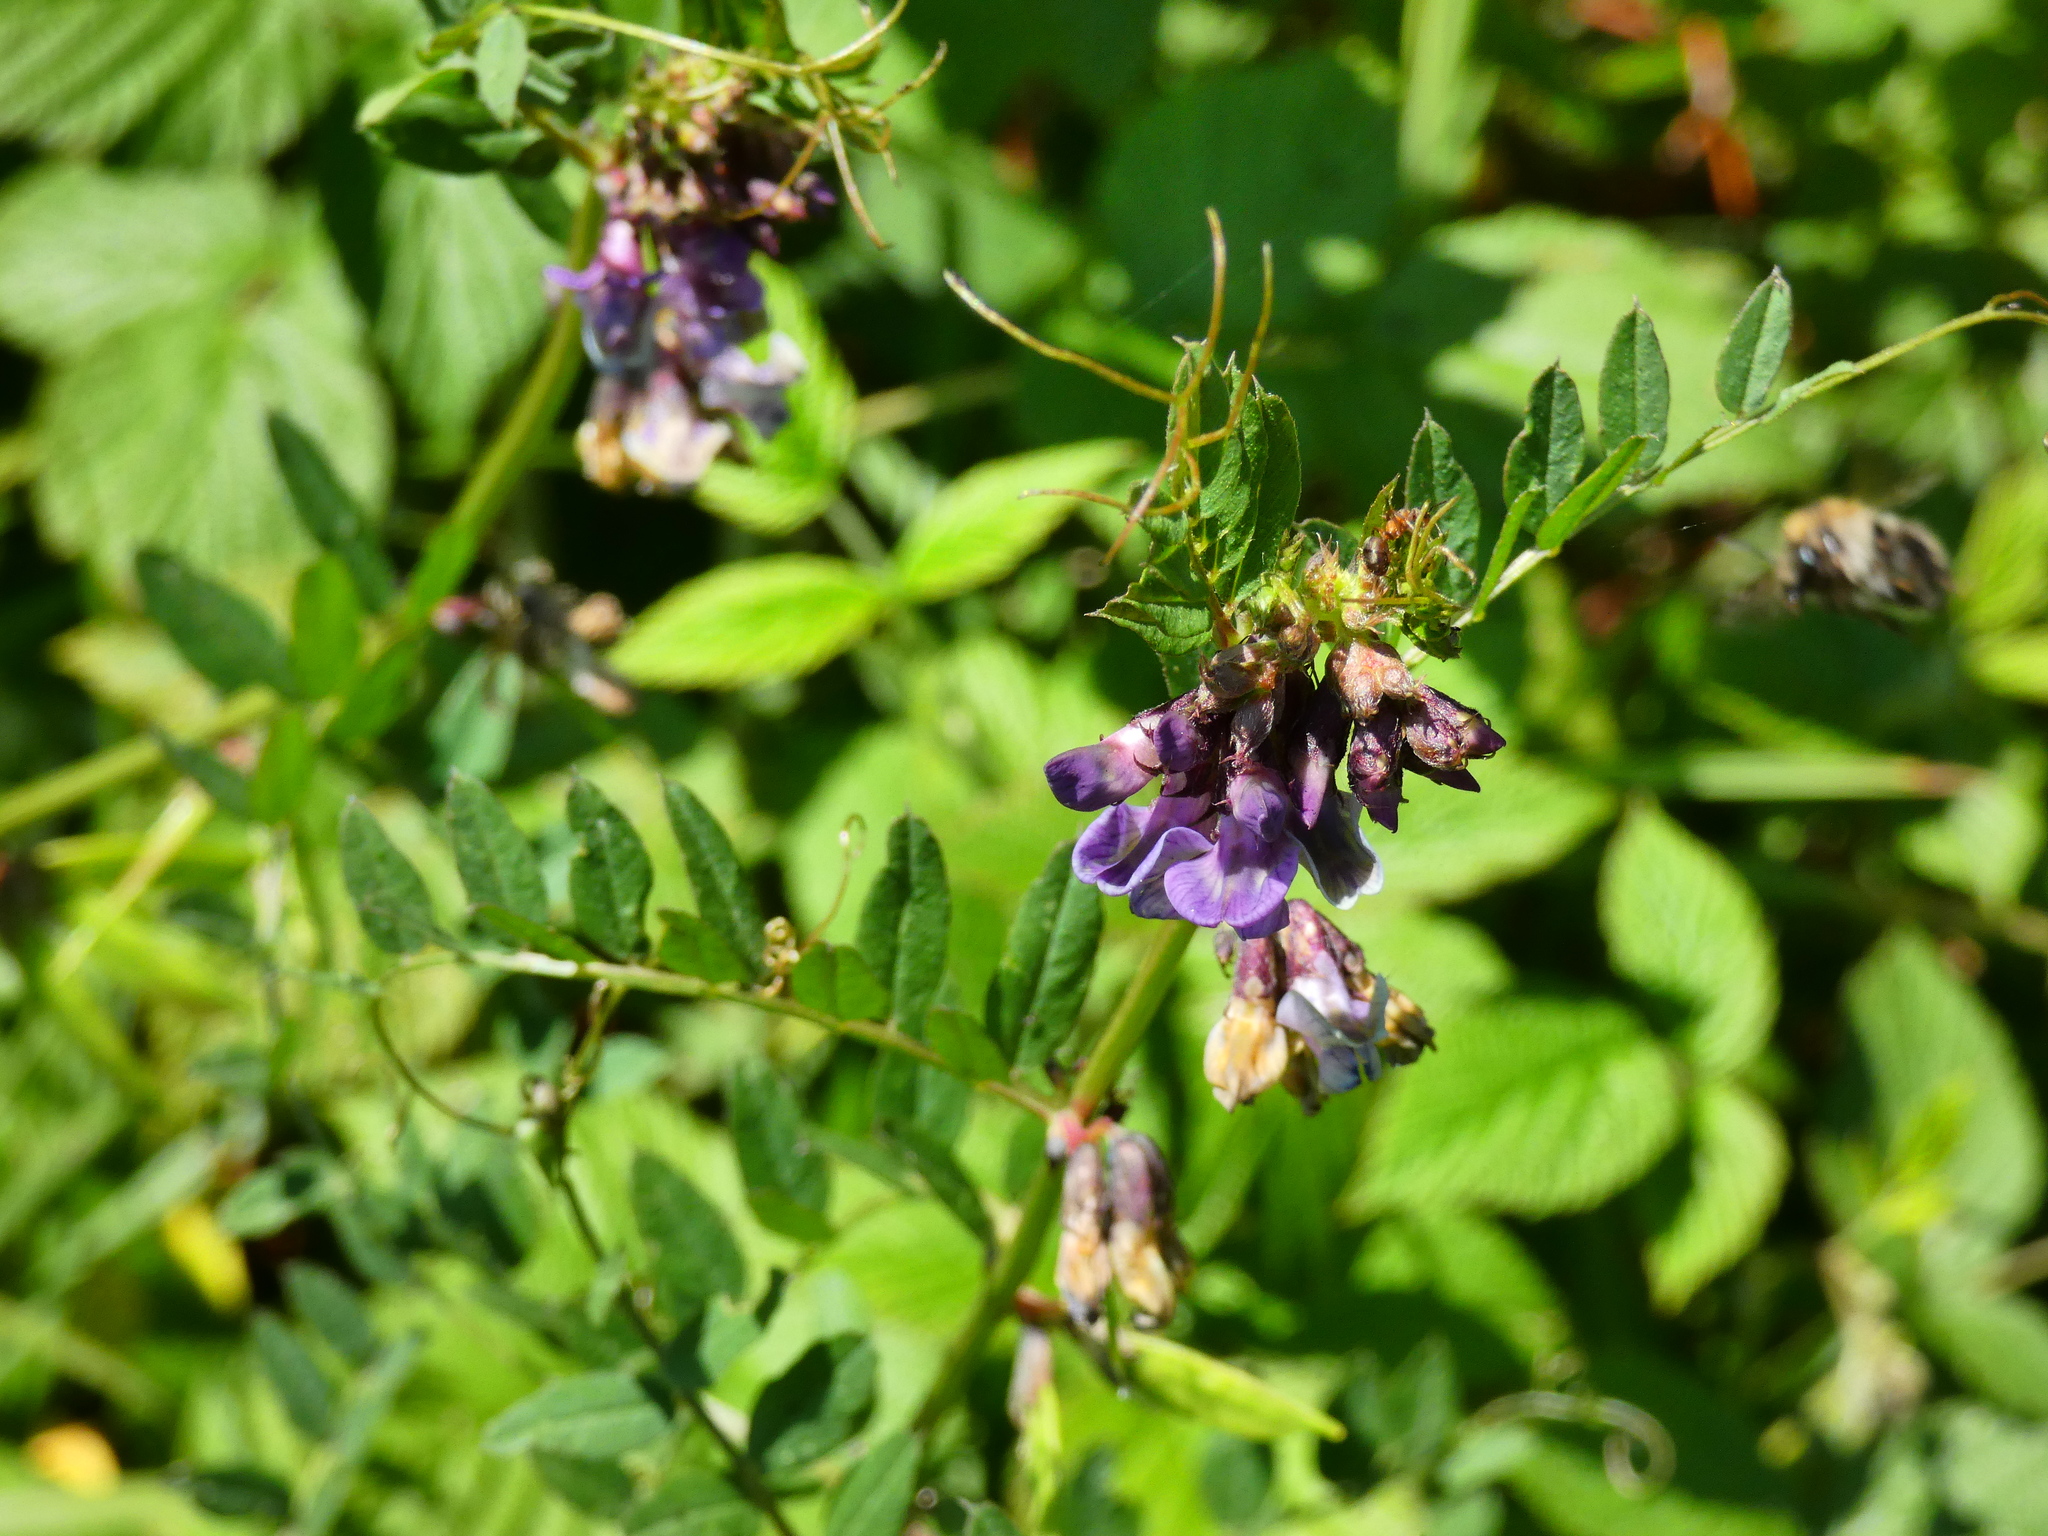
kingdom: Plantae
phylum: Tracheophyta
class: Magnoliopsida
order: Fabales
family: Fabaceae
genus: Vicia
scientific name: Vicia sepium
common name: Bush vetch
